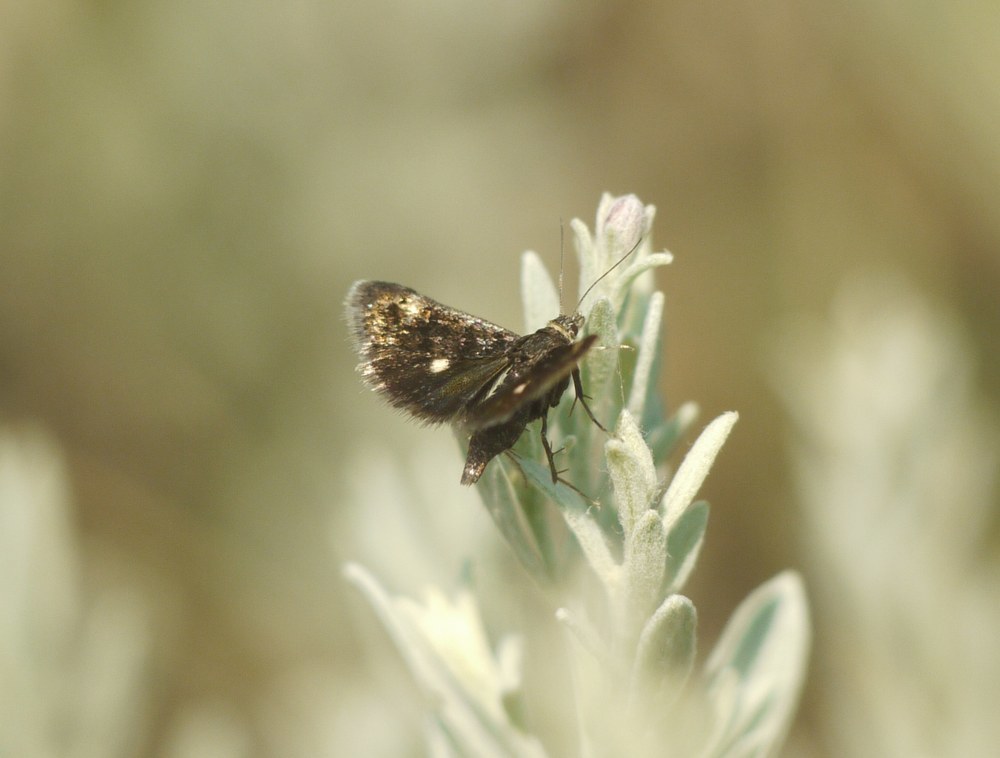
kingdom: Animalia
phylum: Arthropoda
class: Insecta
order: Lepidoptera
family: Crambidae
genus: Heliothela
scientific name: Heliothela wulfeniana
